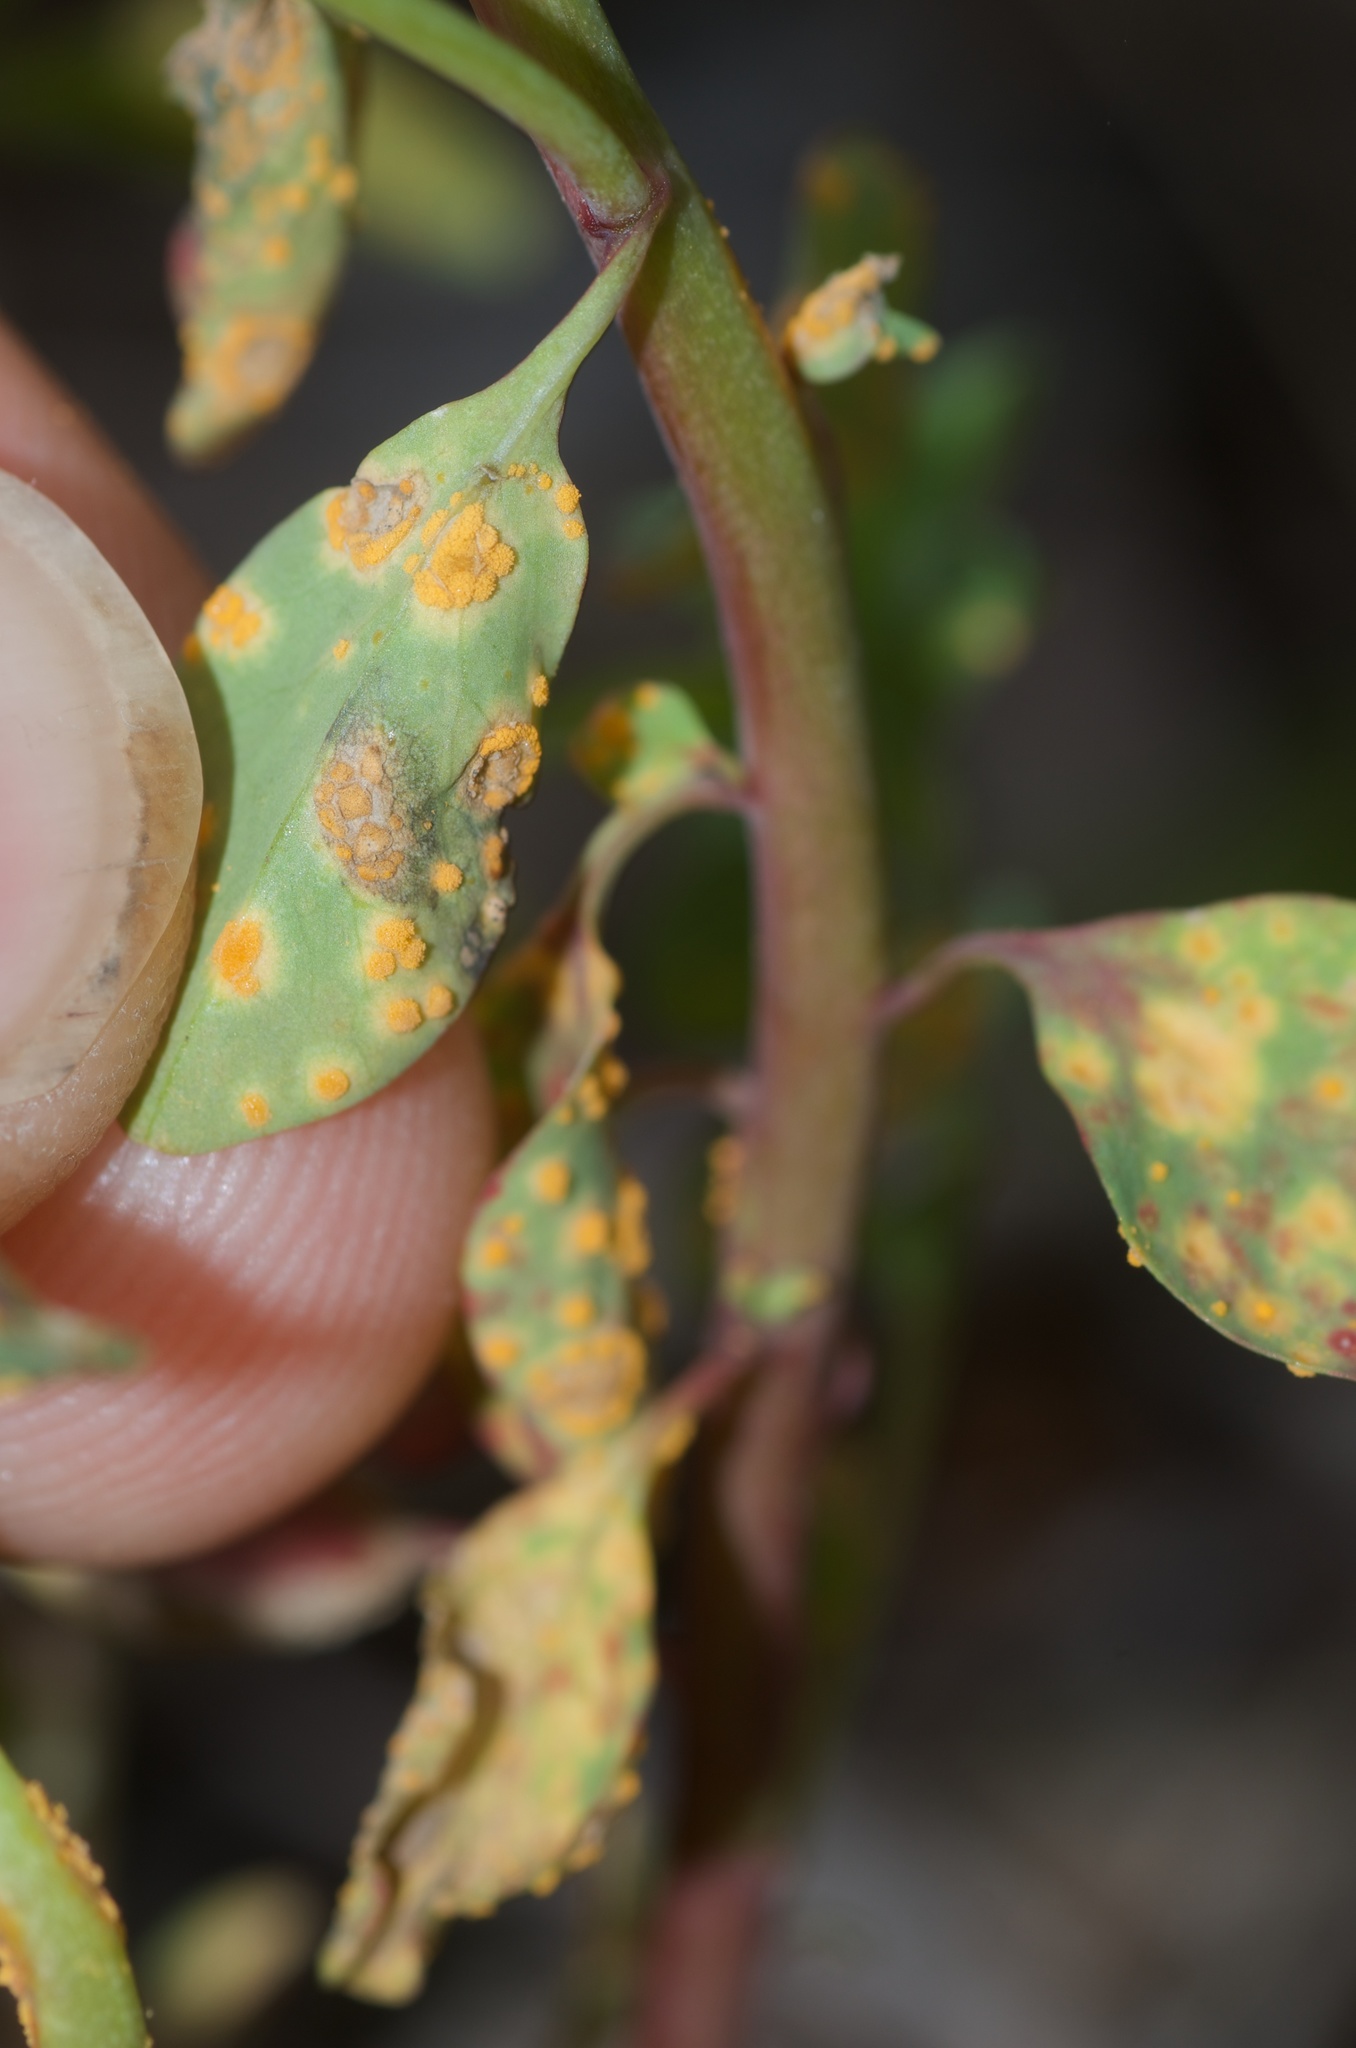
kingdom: Fungi
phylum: Basidiomycota
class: Pucciniomycetes
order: Pucciniales
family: Melampsoraceae
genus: Melampsora
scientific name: Melampsora euphorbiae
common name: Spurge rust
